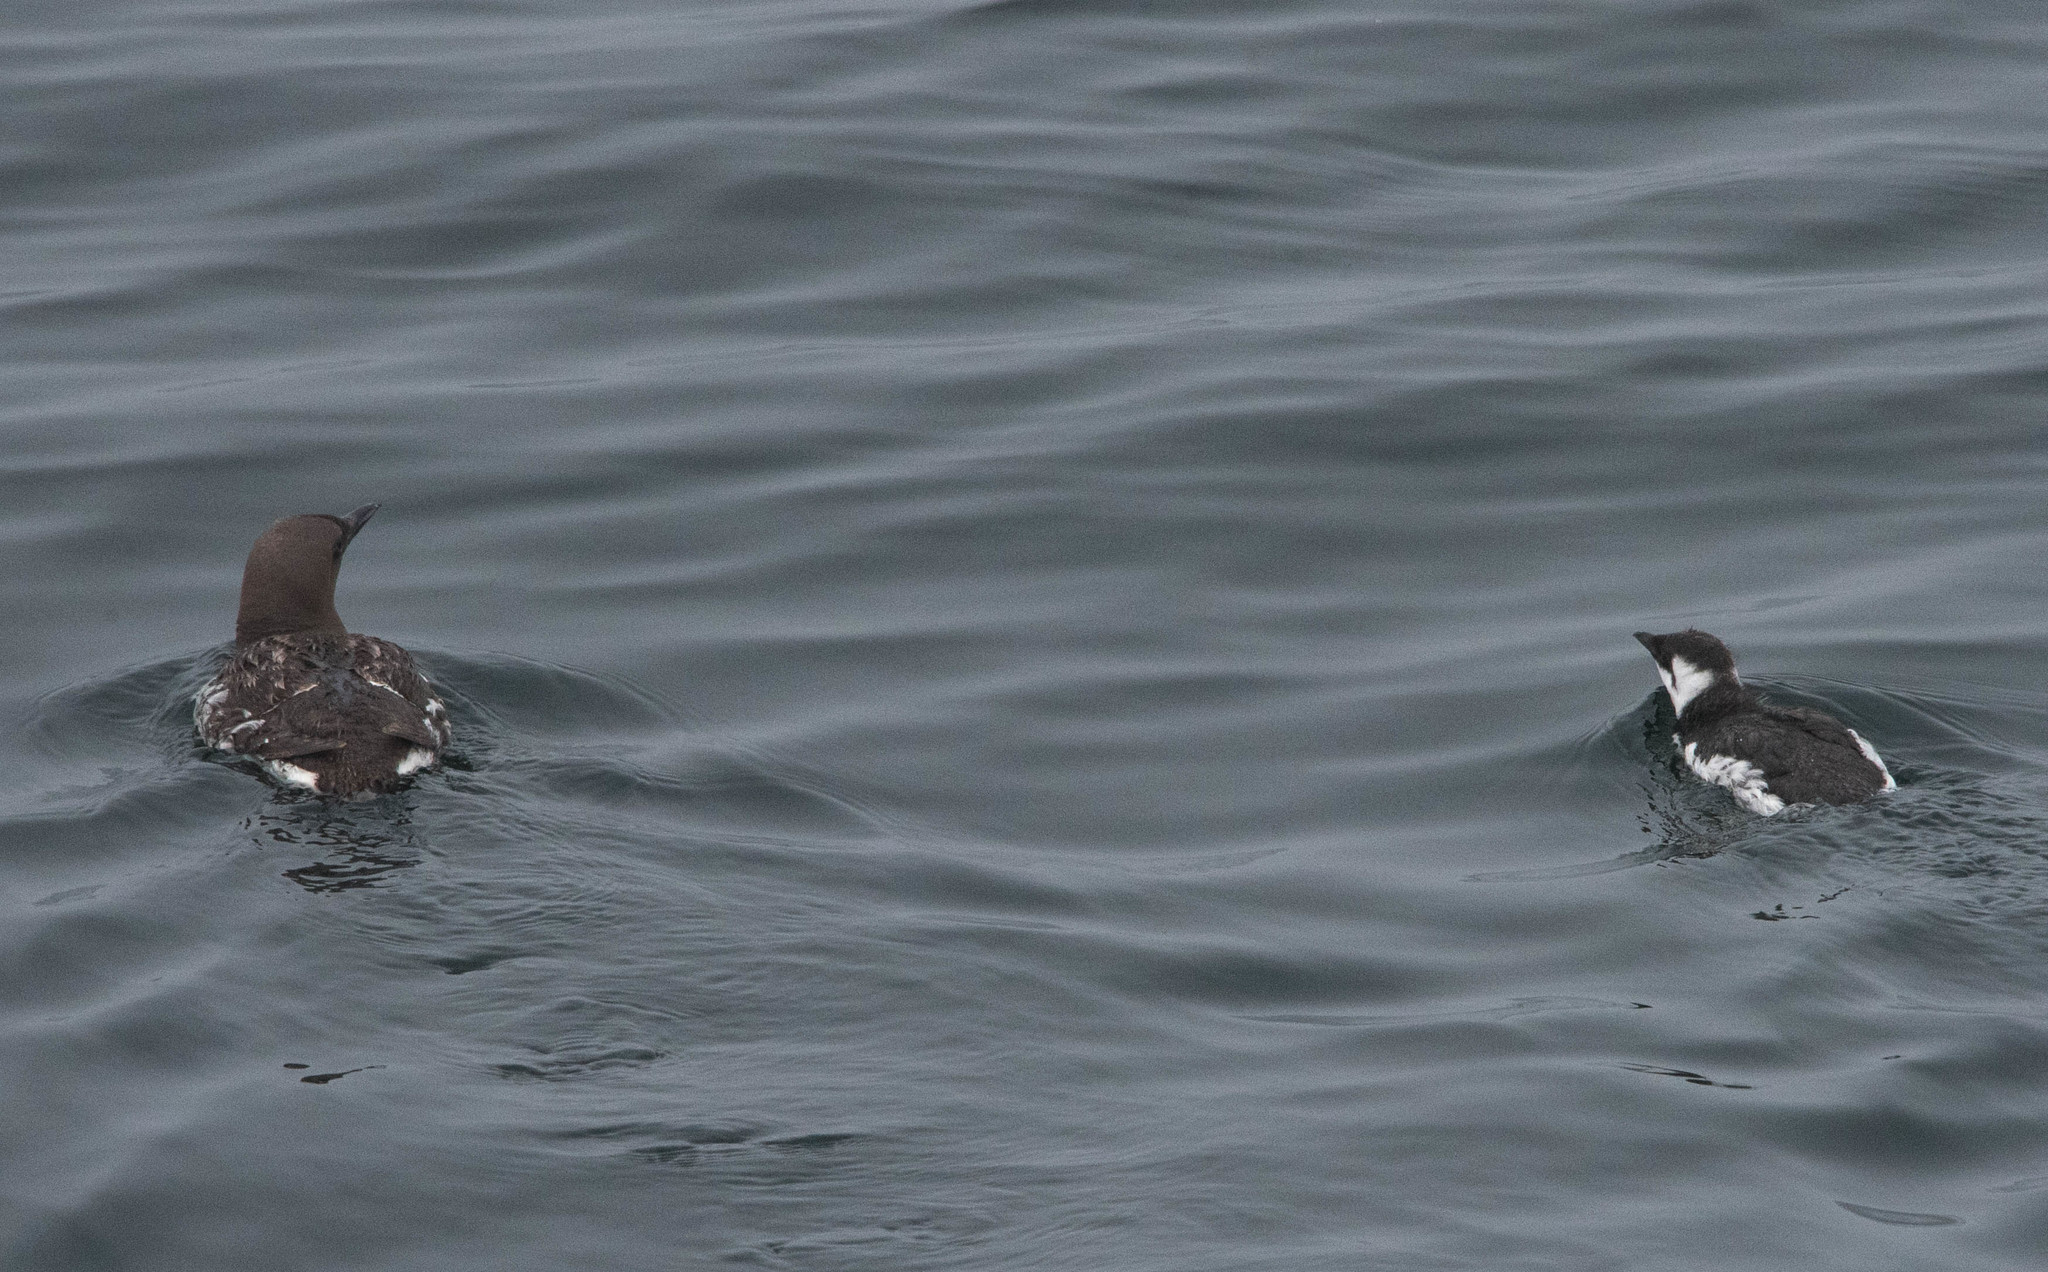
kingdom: Animalia
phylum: Chordata
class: Aves
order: Charadriiformes
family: Alcidae
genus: Uria
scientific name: Uria aalge
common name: Common murre
